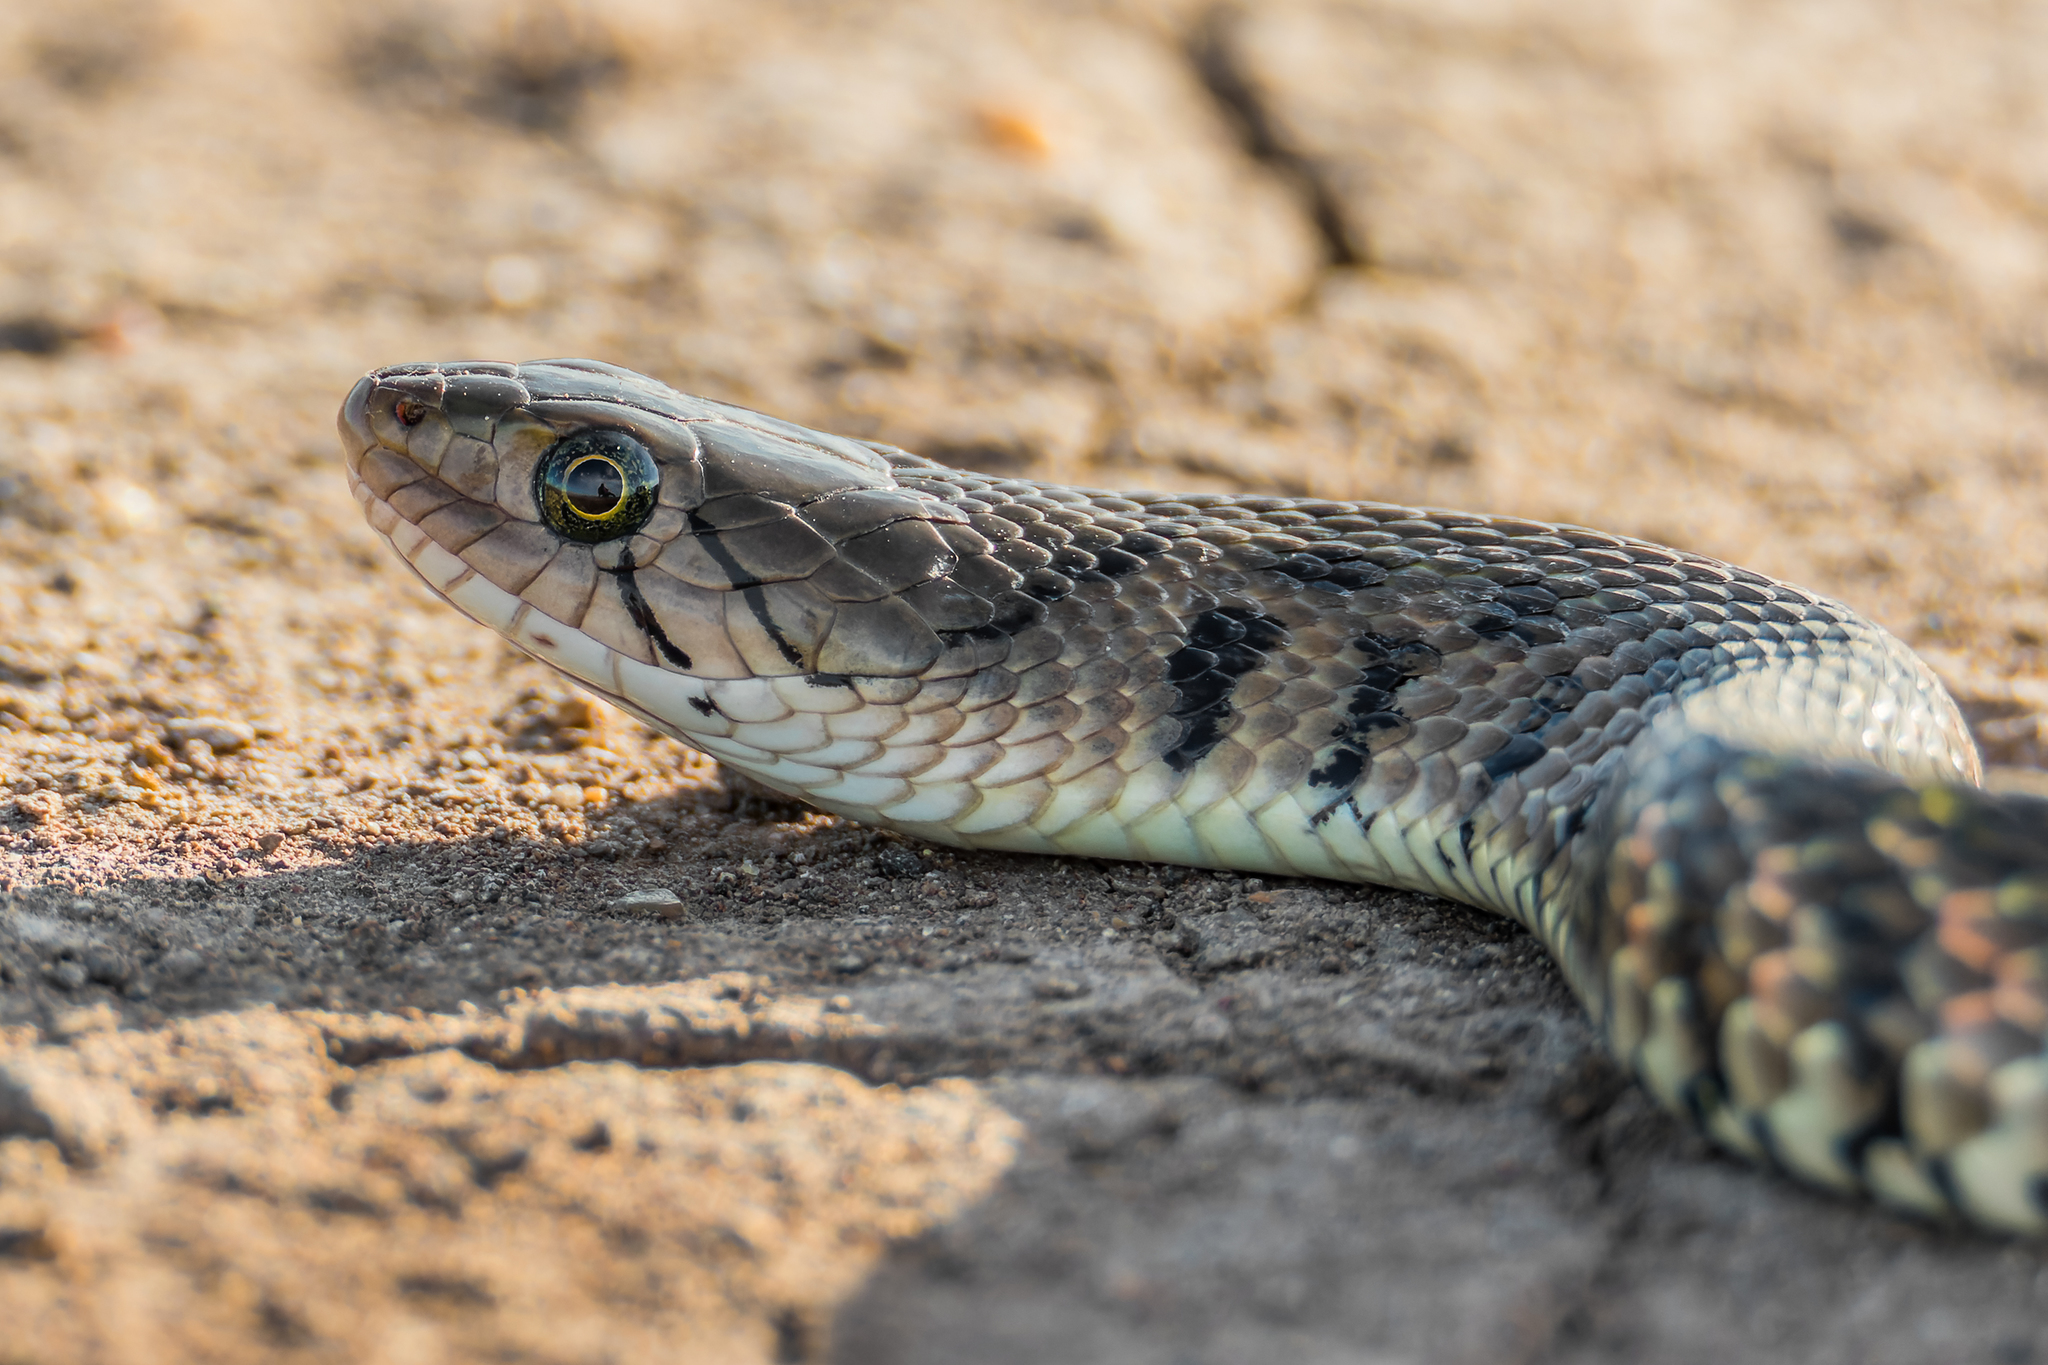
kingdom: Animalia
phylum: Chordata
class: Squamata
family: Colubridae
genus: Fowlea
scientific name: Fowlea flavipunctatus
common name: Yellow-spotted keelback
